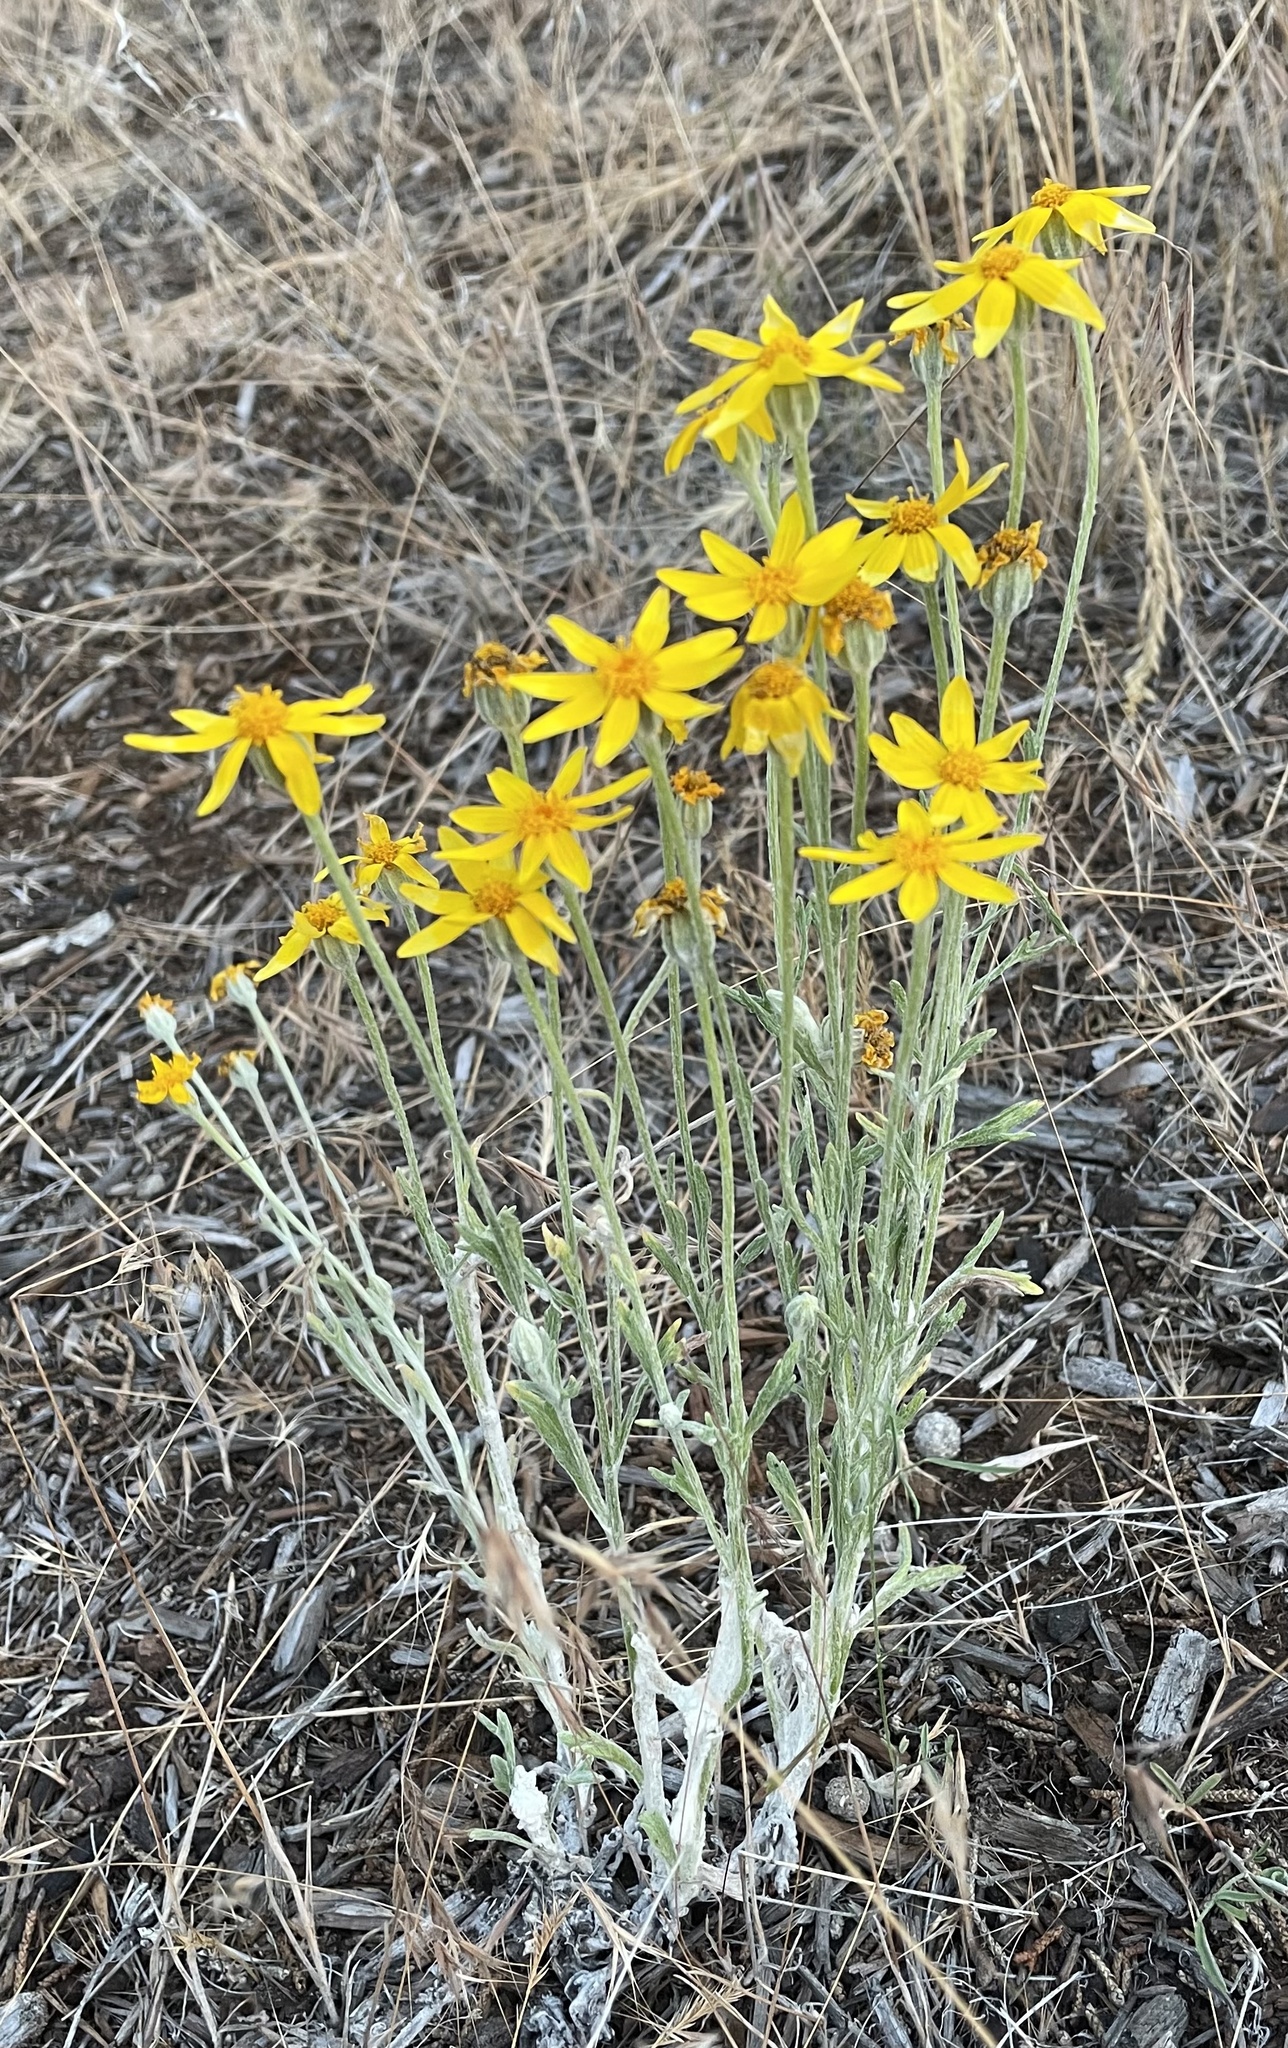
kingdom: Plantae
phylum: Tracheophyta
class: Magnoliopsida
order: Asterales
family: Asteraceae
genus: Eriophyllum
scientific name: Eriophyllum lanatum
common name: Common woolly-sunflower
